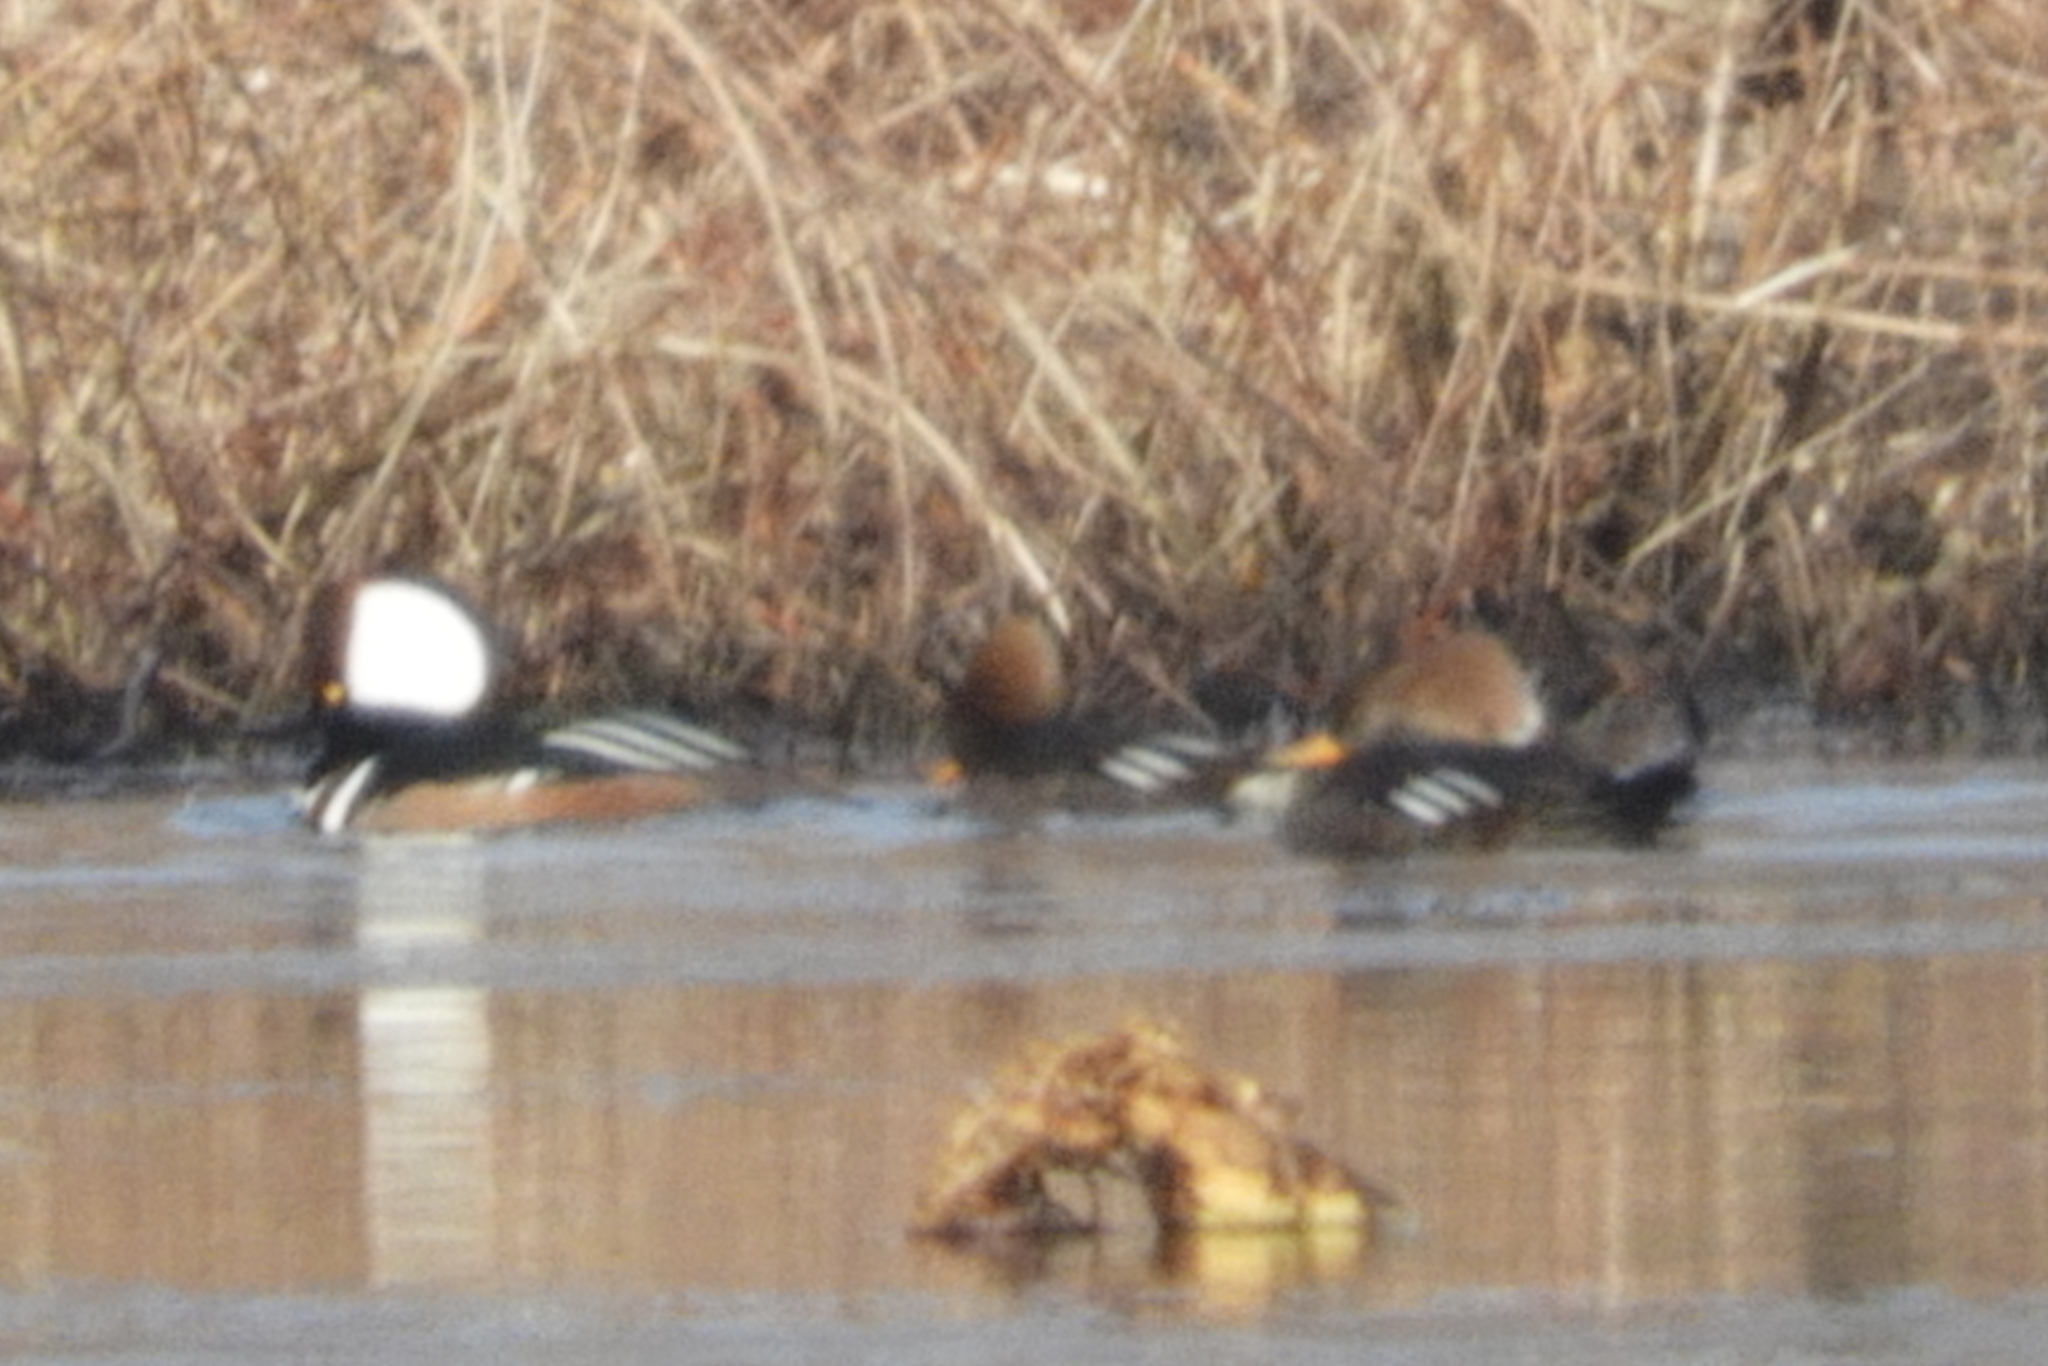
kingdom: Animalia
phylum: Chordata
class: Aves
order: Anseriformes
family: Anatidae
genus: Lophodytes
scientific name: Lophodytes cucullatus
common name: Hooded merganser
